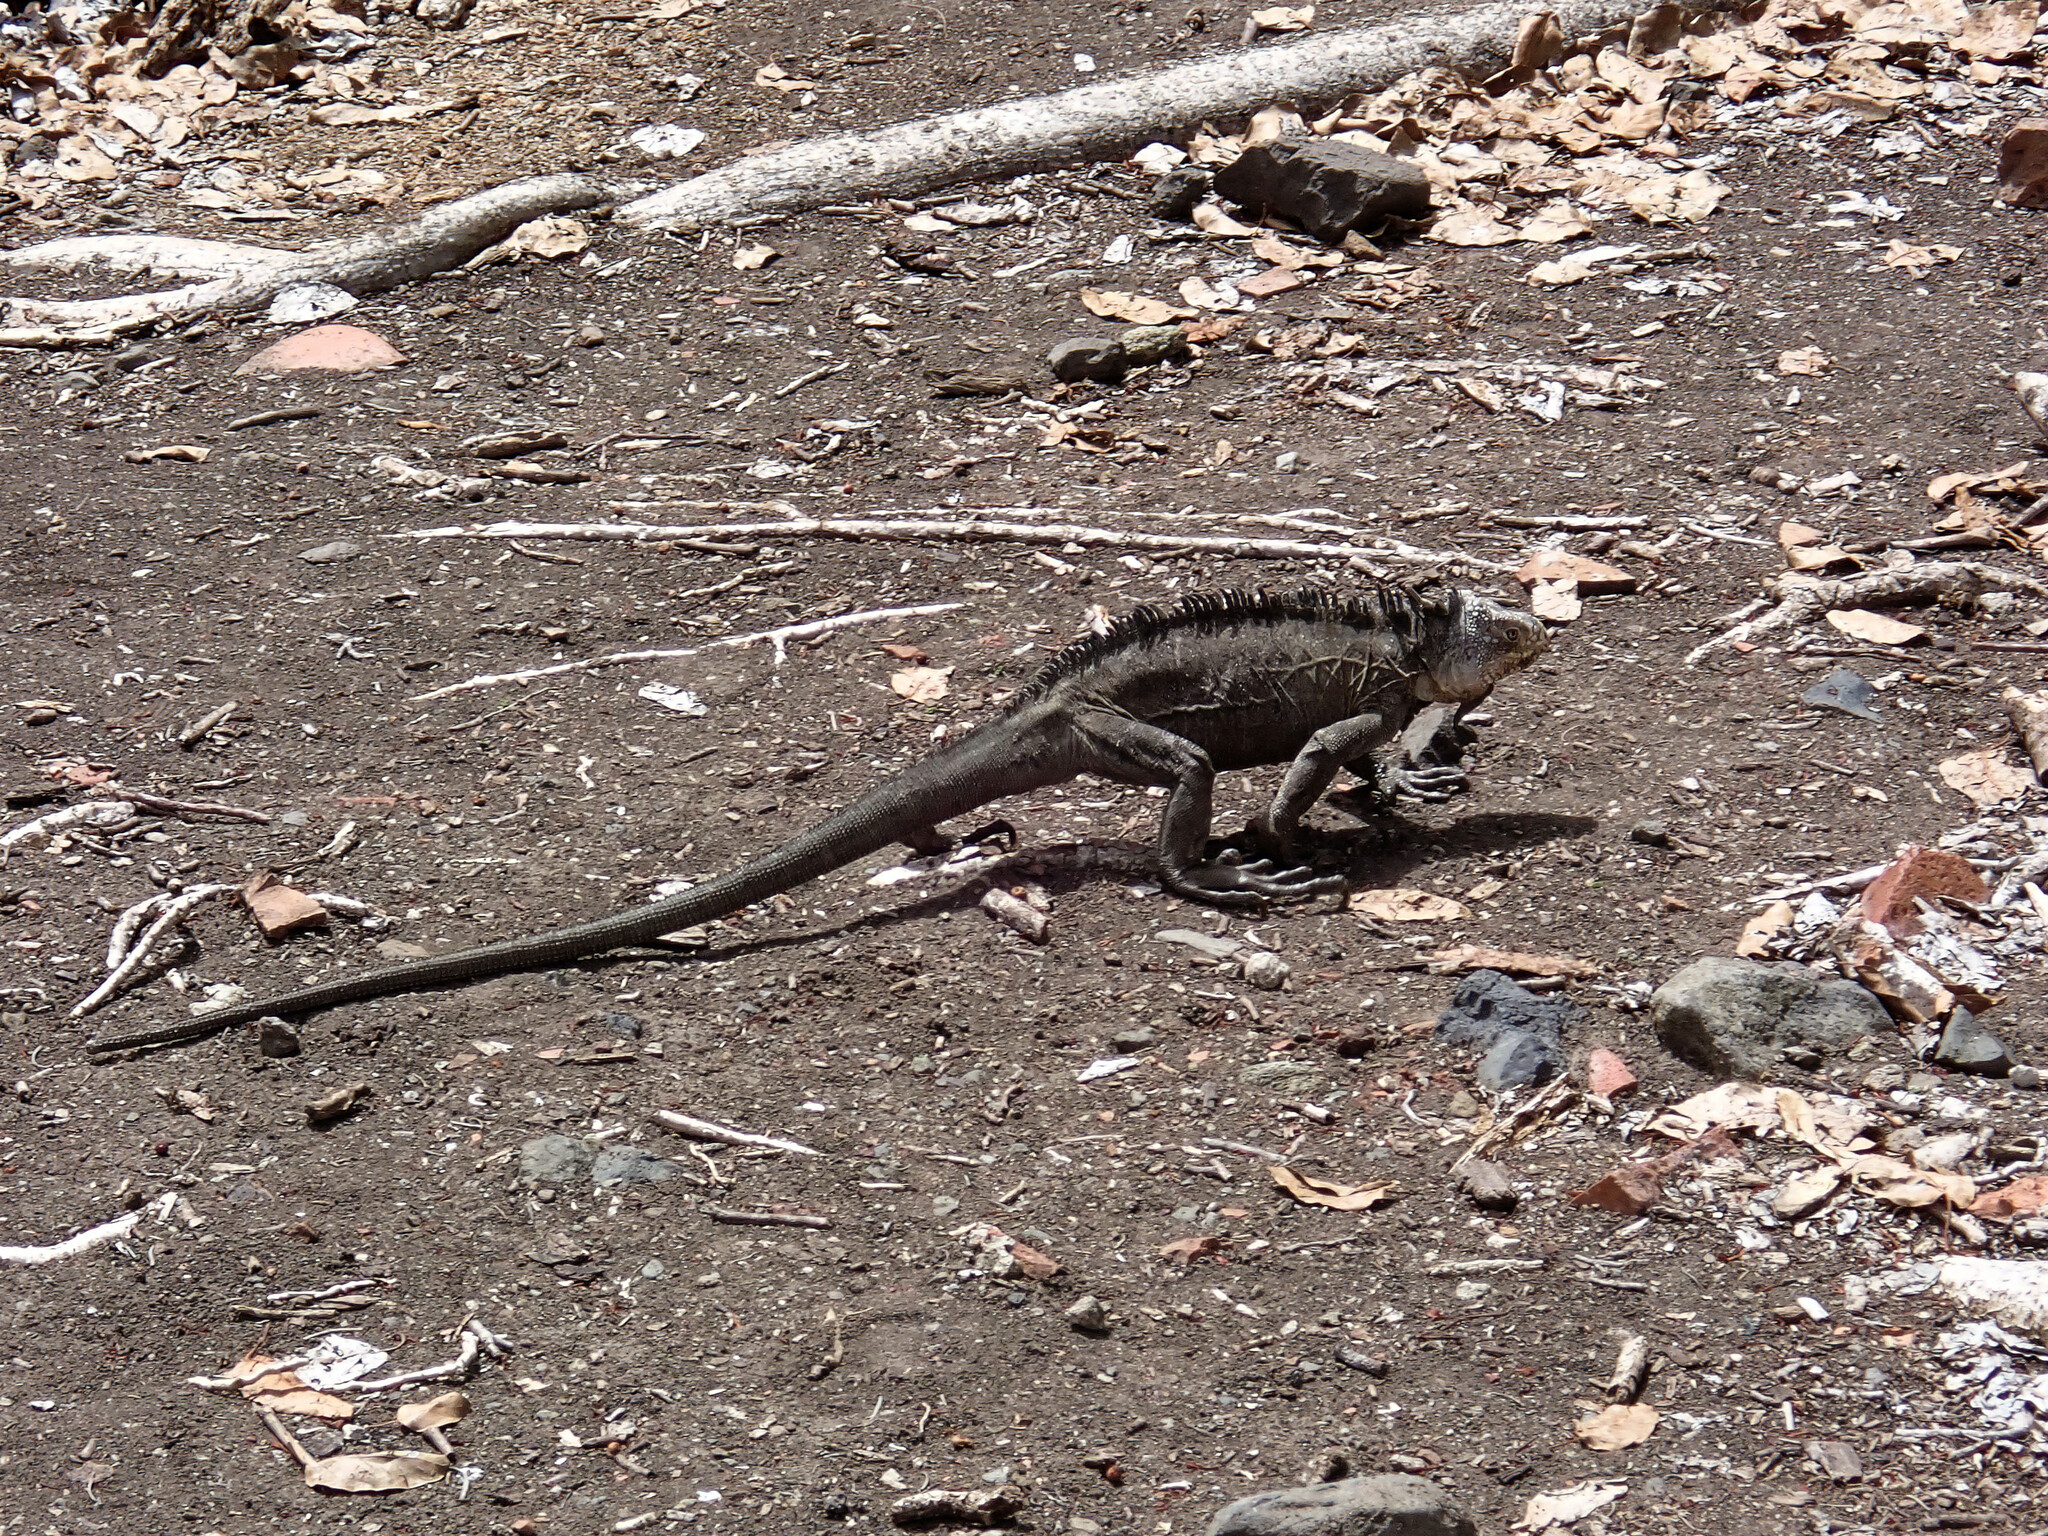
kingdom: Animalia
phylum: Chordata
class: Squamata
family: Iguanidae
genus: Iguana
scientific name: Iguana delicatissima
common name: West indian iguana
